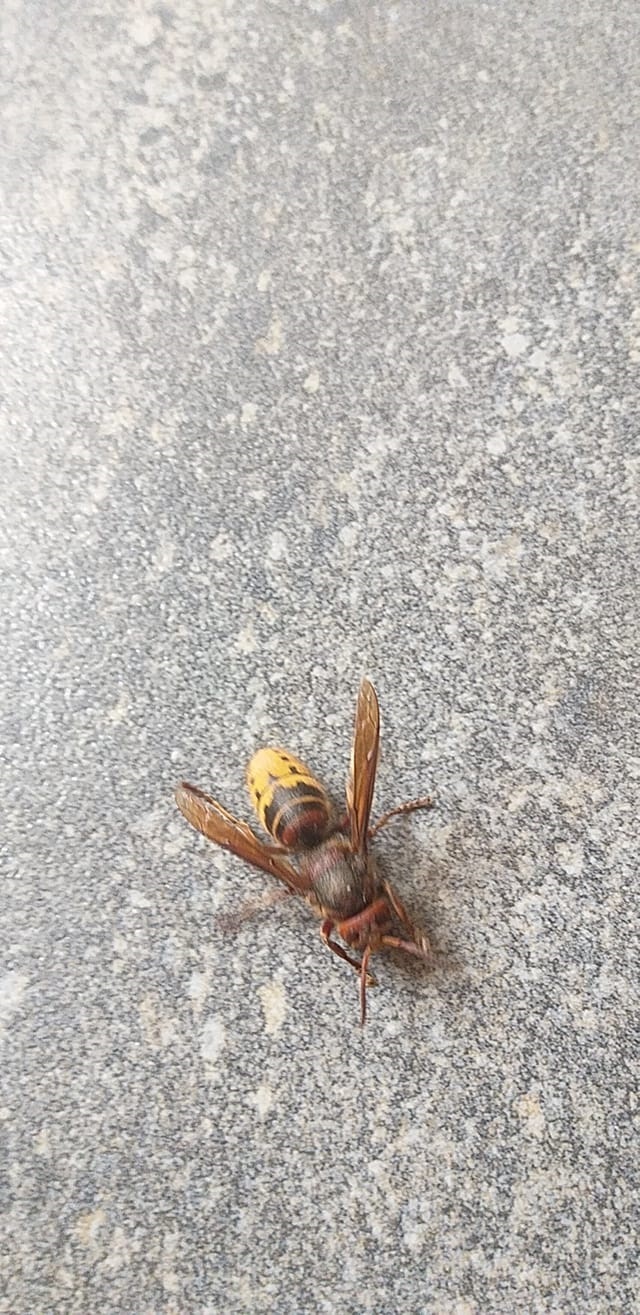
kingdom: Animalia
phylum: Arthropoda
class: Insecta
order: Hymenoptera
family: Vespidae
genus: Vespa
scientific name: Vespa crabro
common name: Hornet
